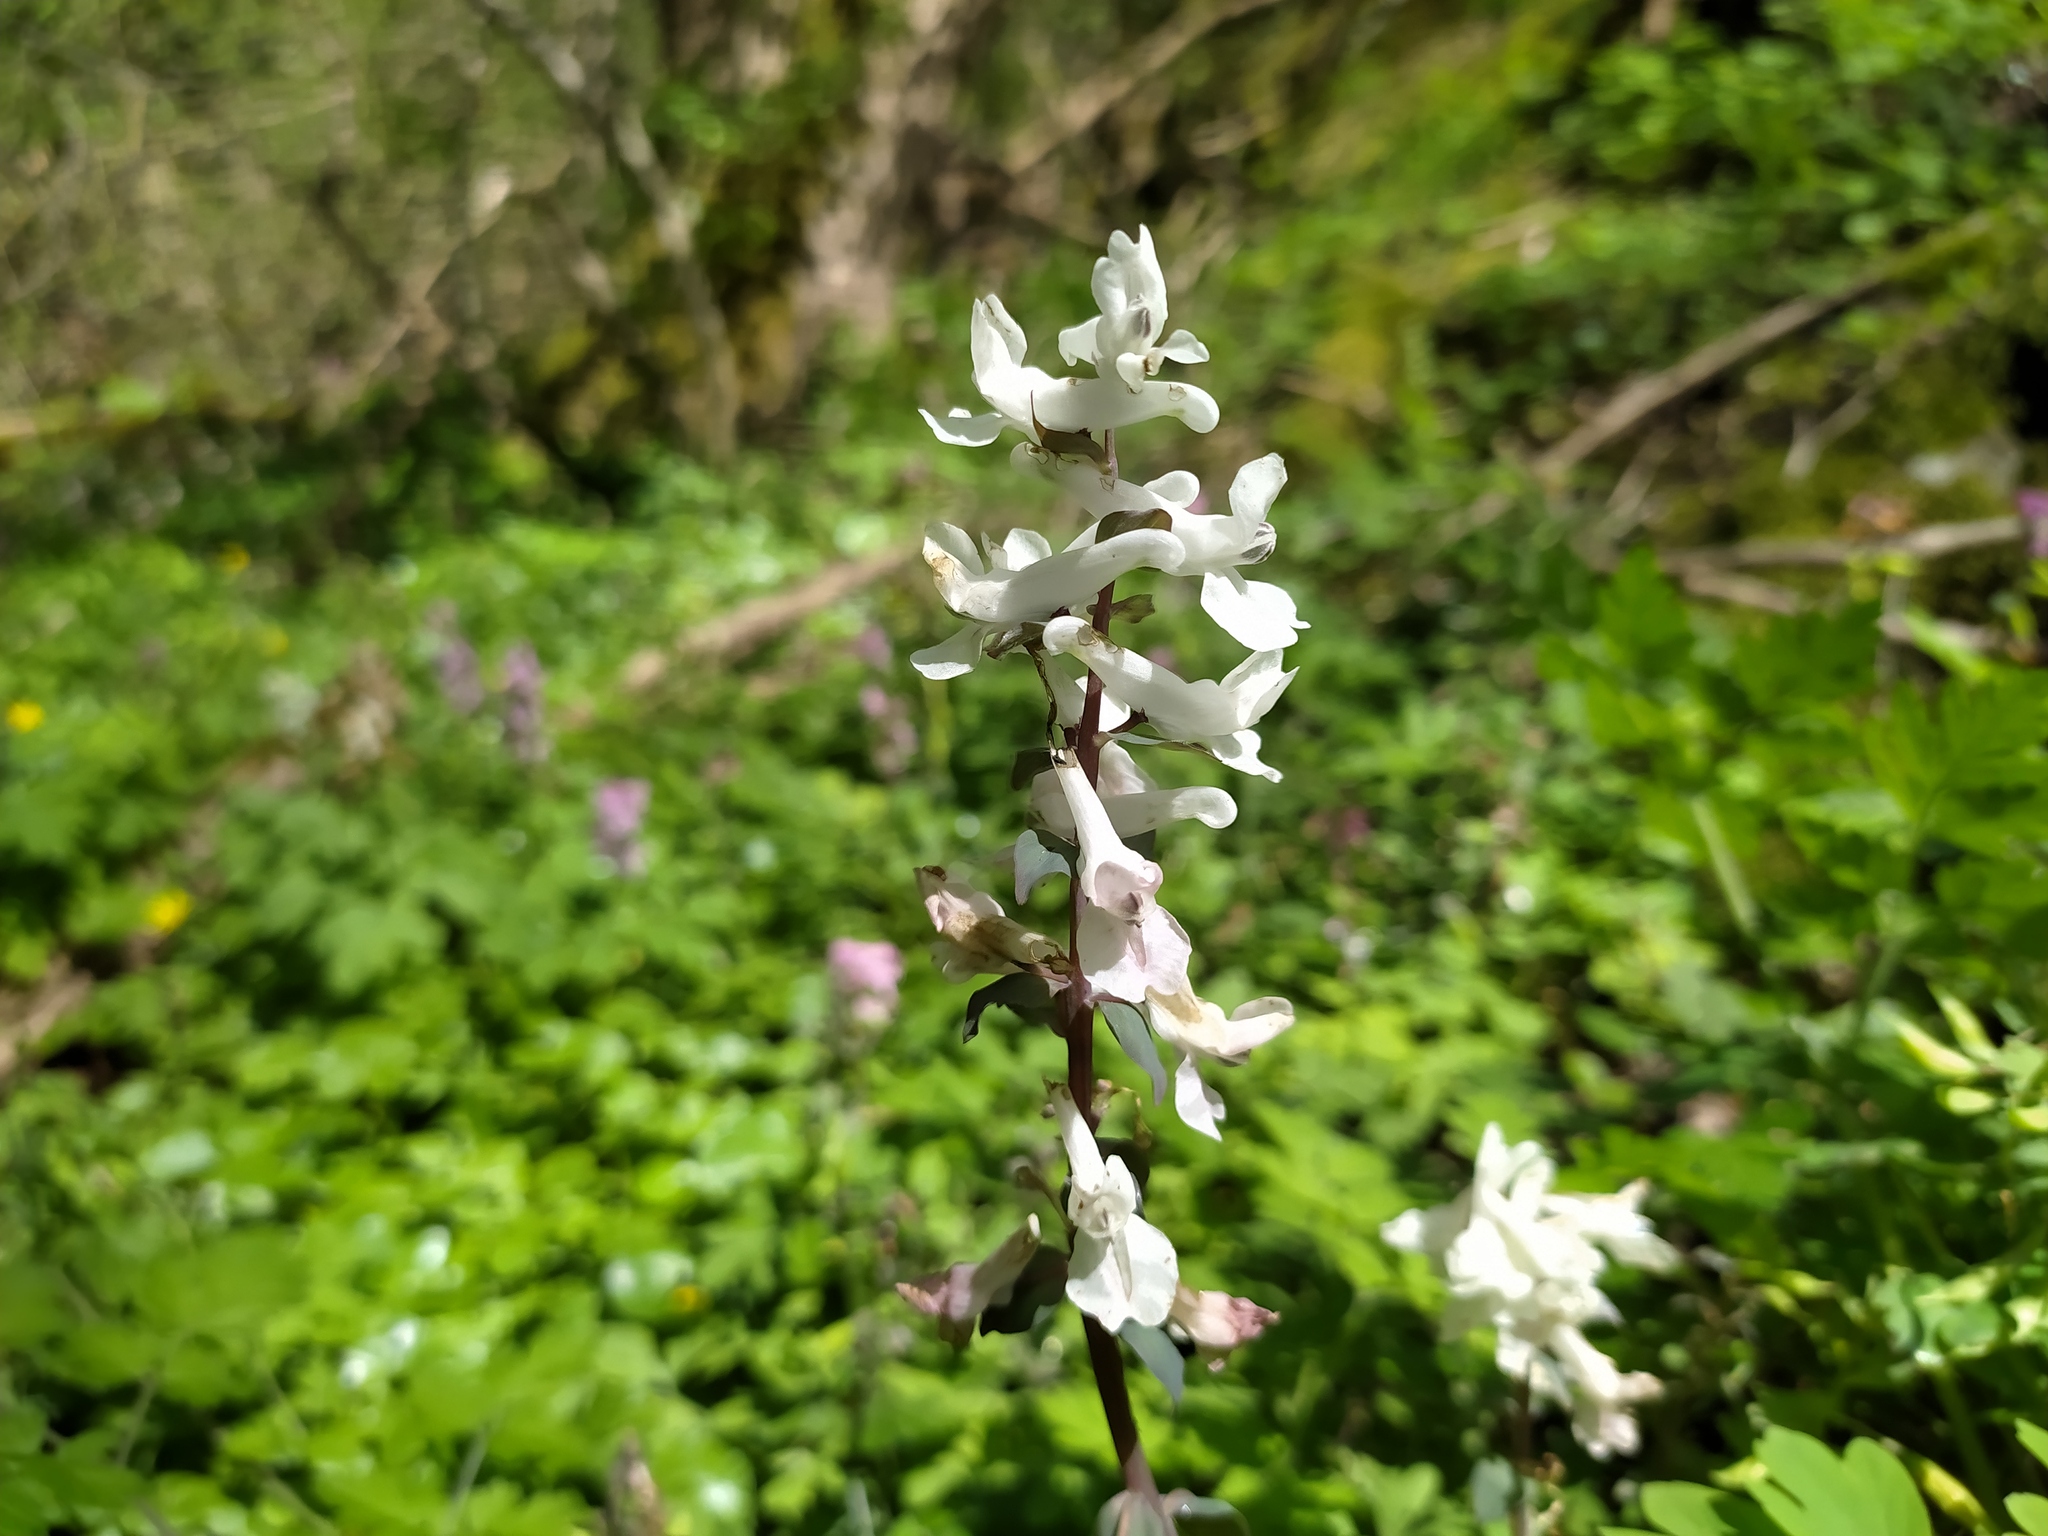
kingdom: Plantae
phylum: Tracheophyta
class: Magnoliopsida
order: Ranunculales
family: Papaveraceae
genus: Corydalis
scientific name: Corydalis cava
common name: Hollowroot
